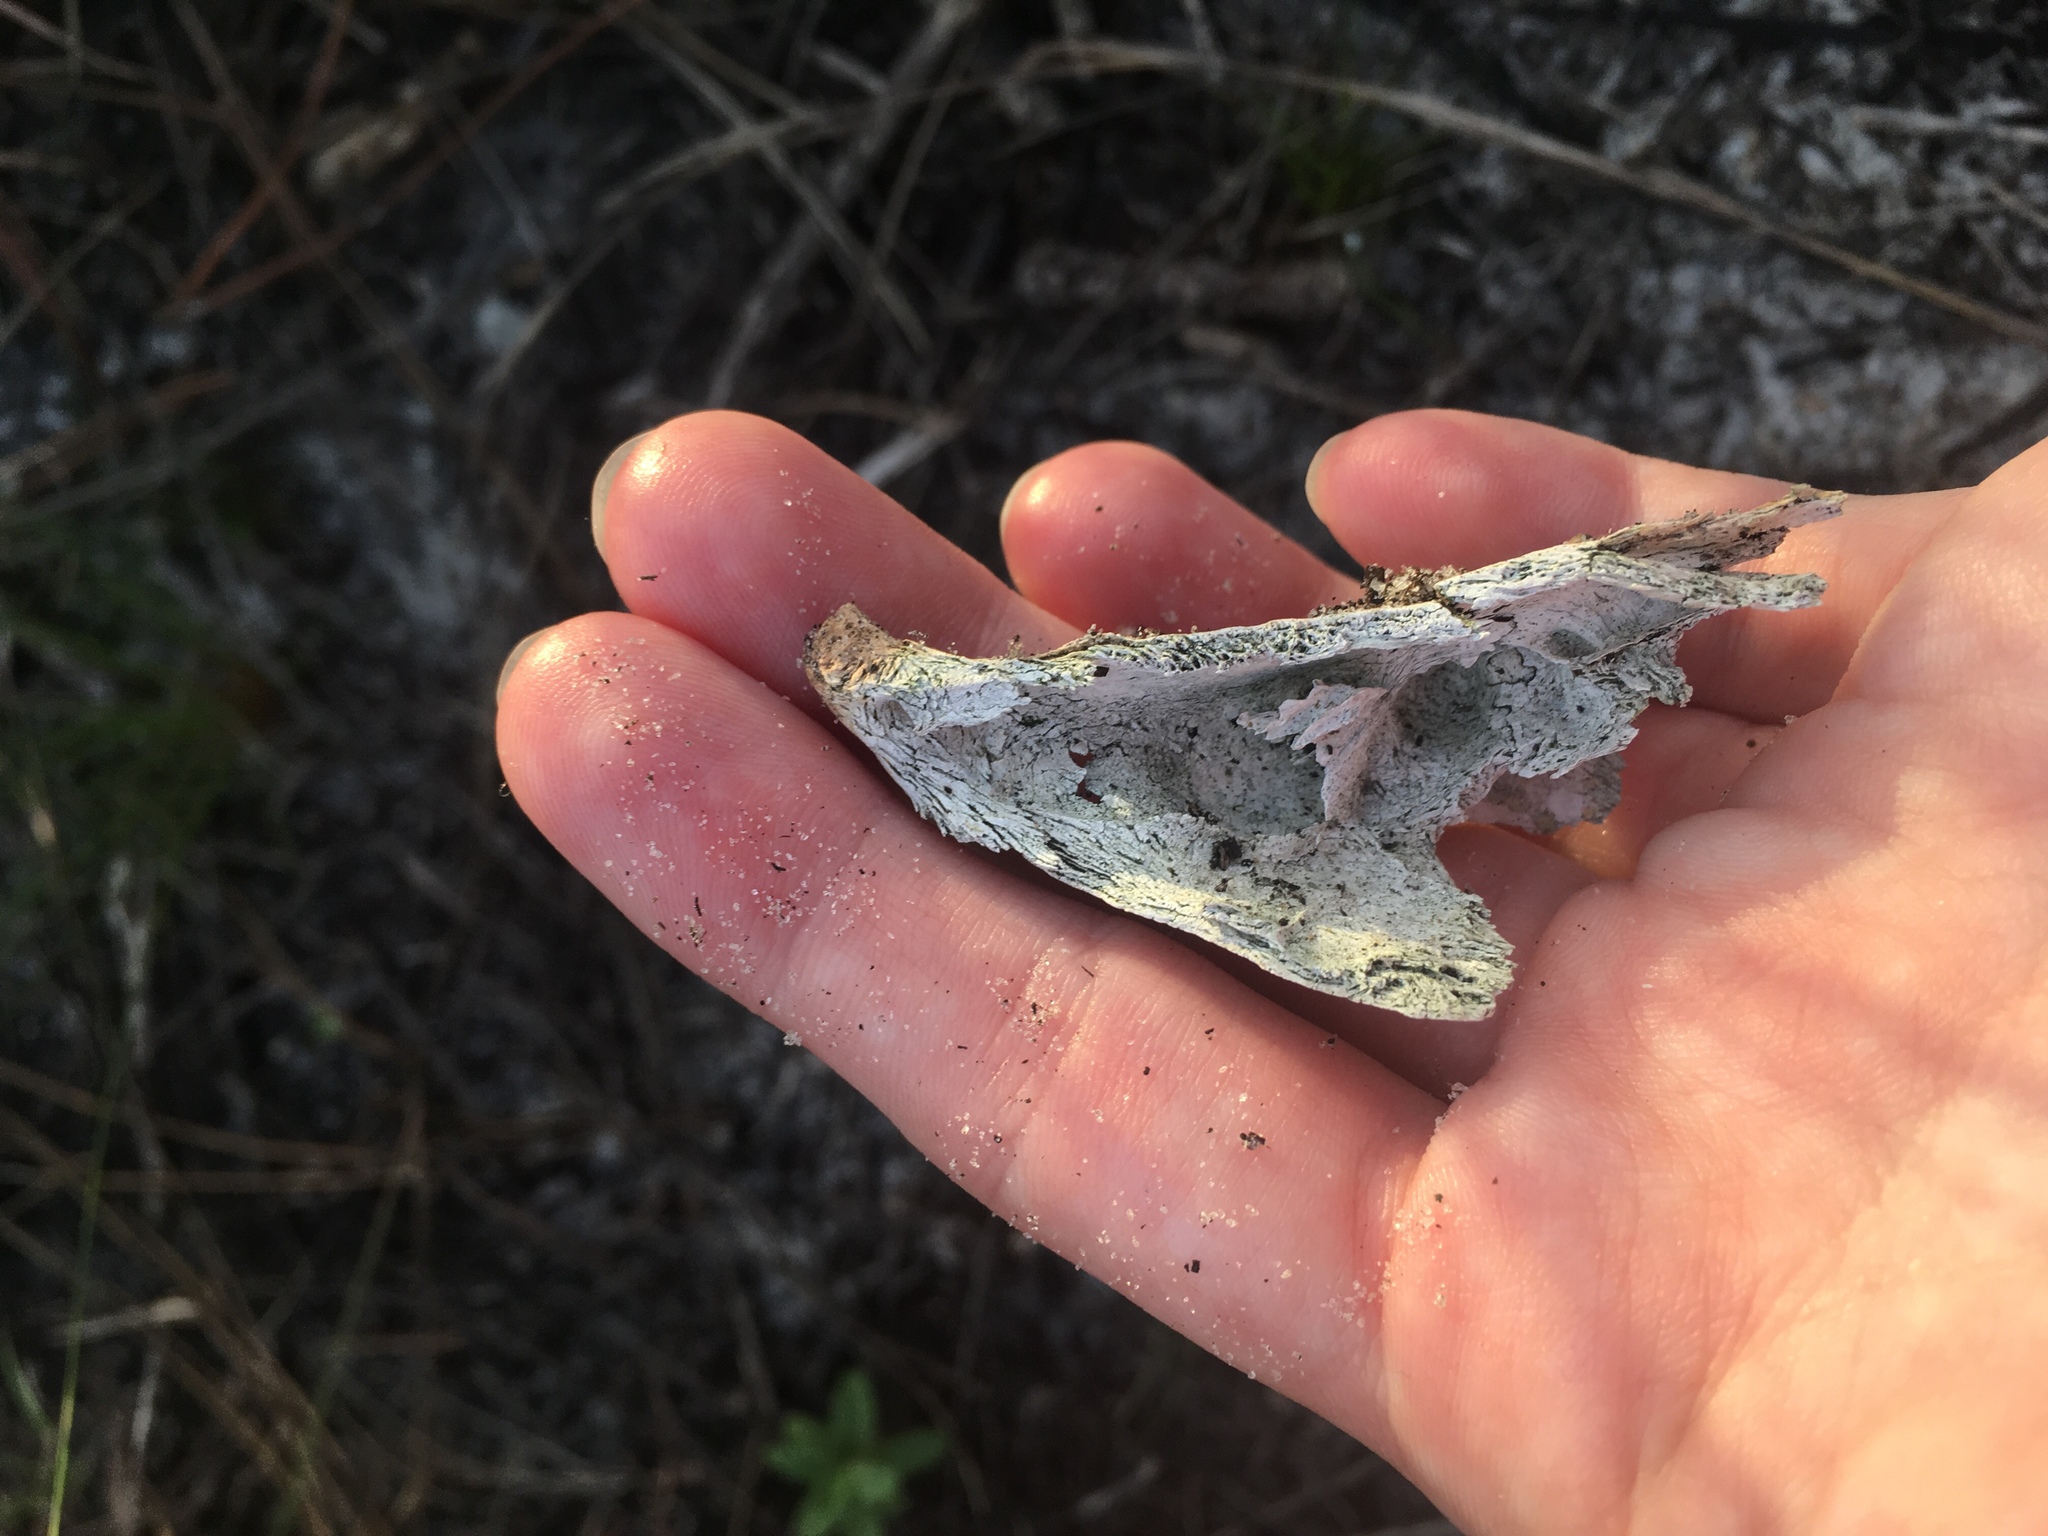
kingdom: Animalia
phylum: Chordata
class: Mammalia
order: Carnivora
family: Procyonidae
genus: Procyon
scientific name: Procyon lotor
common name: Raccoon
